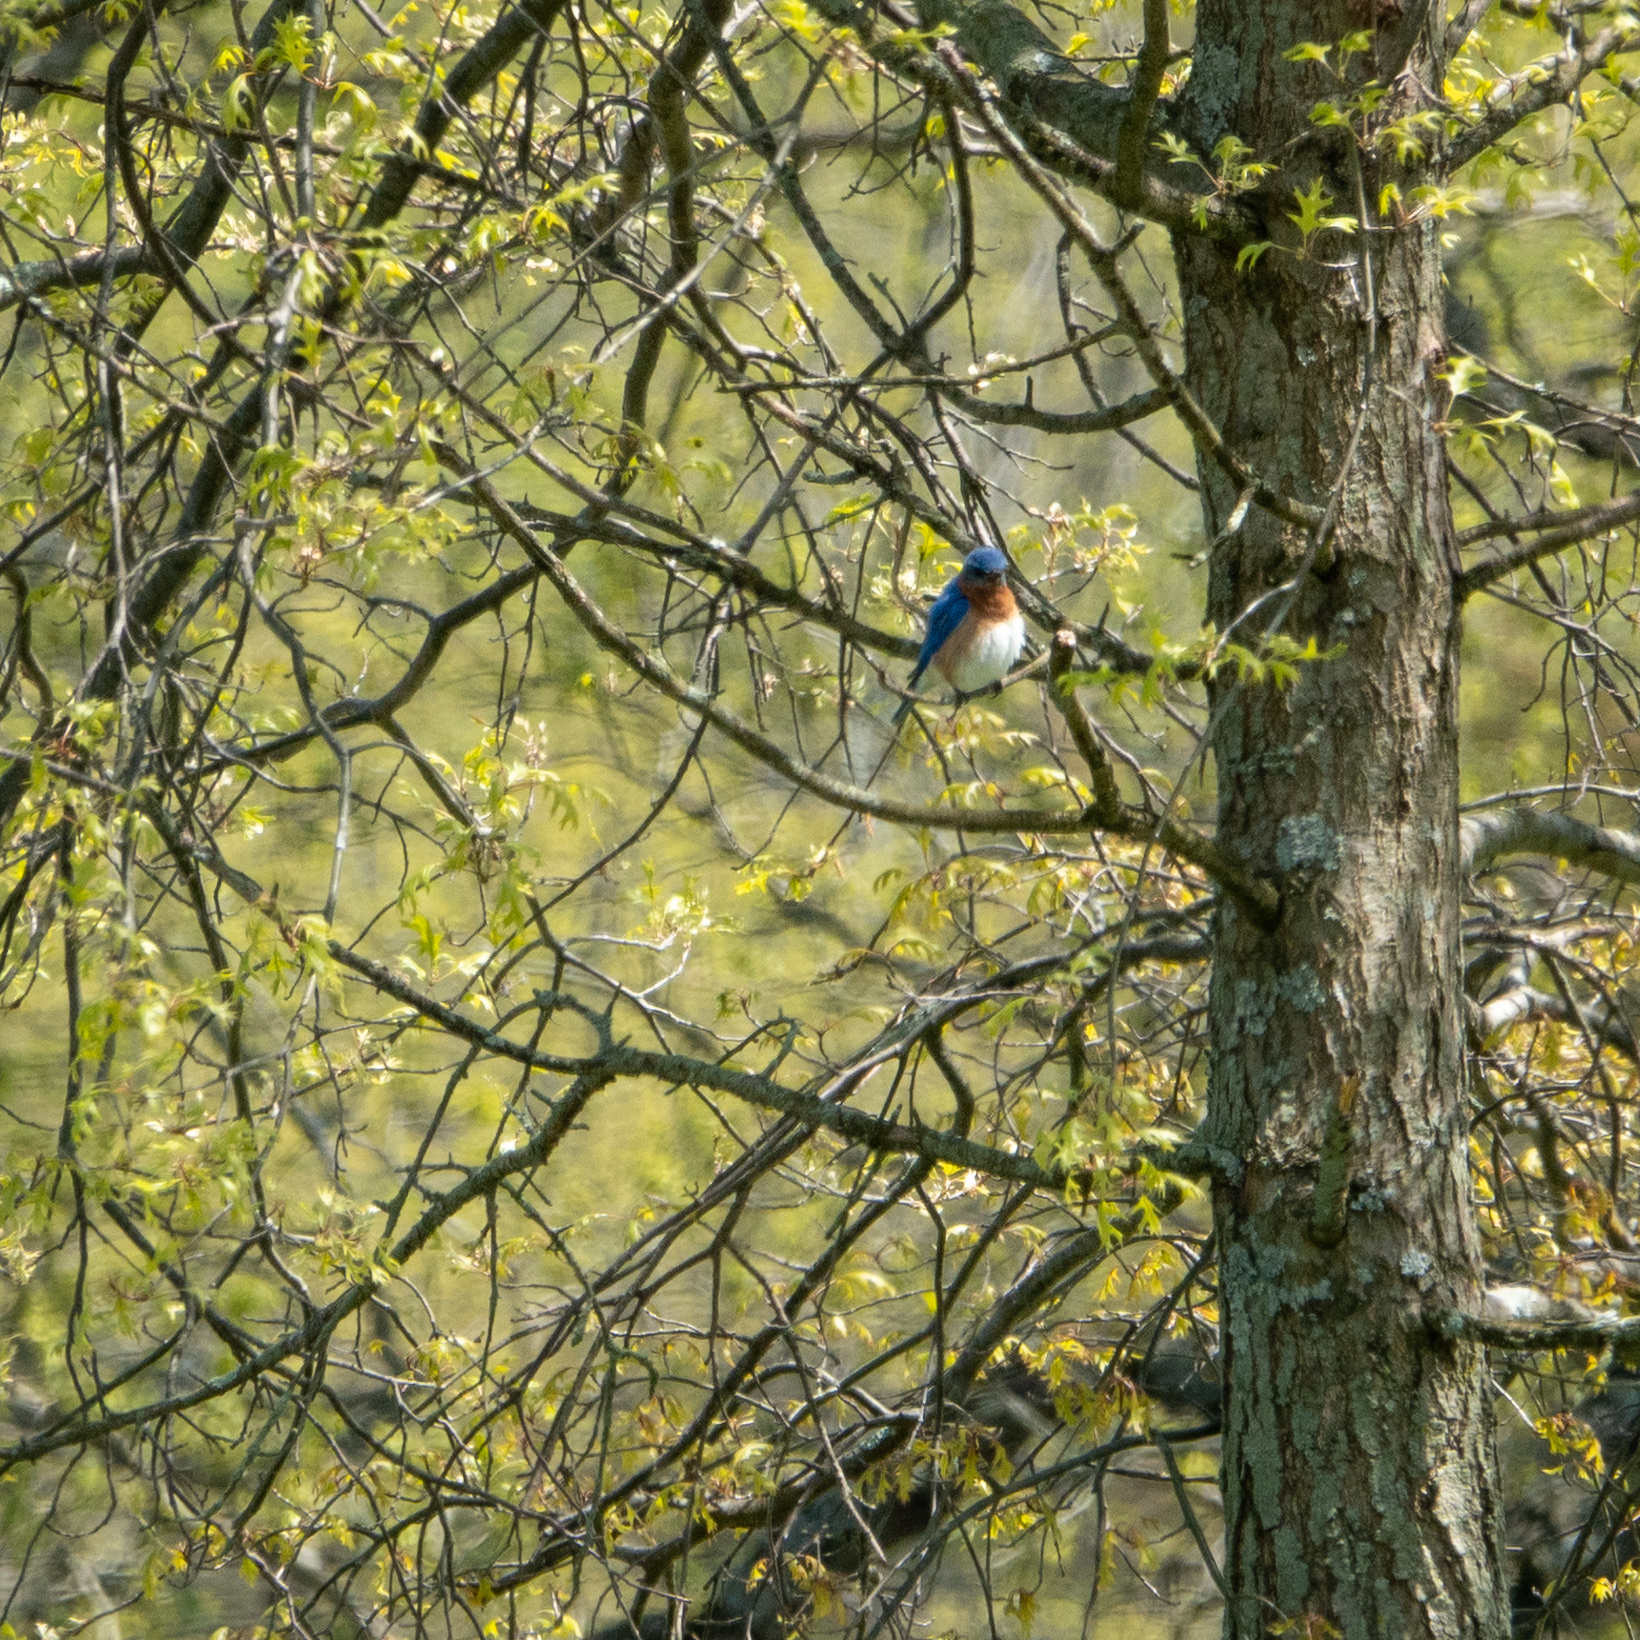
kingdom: Animalia
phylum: Chordata
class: Aves
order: Passeriformes
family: Turdidae
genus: Sialia
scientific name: Sialia sialis
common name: Eastern bluebird
